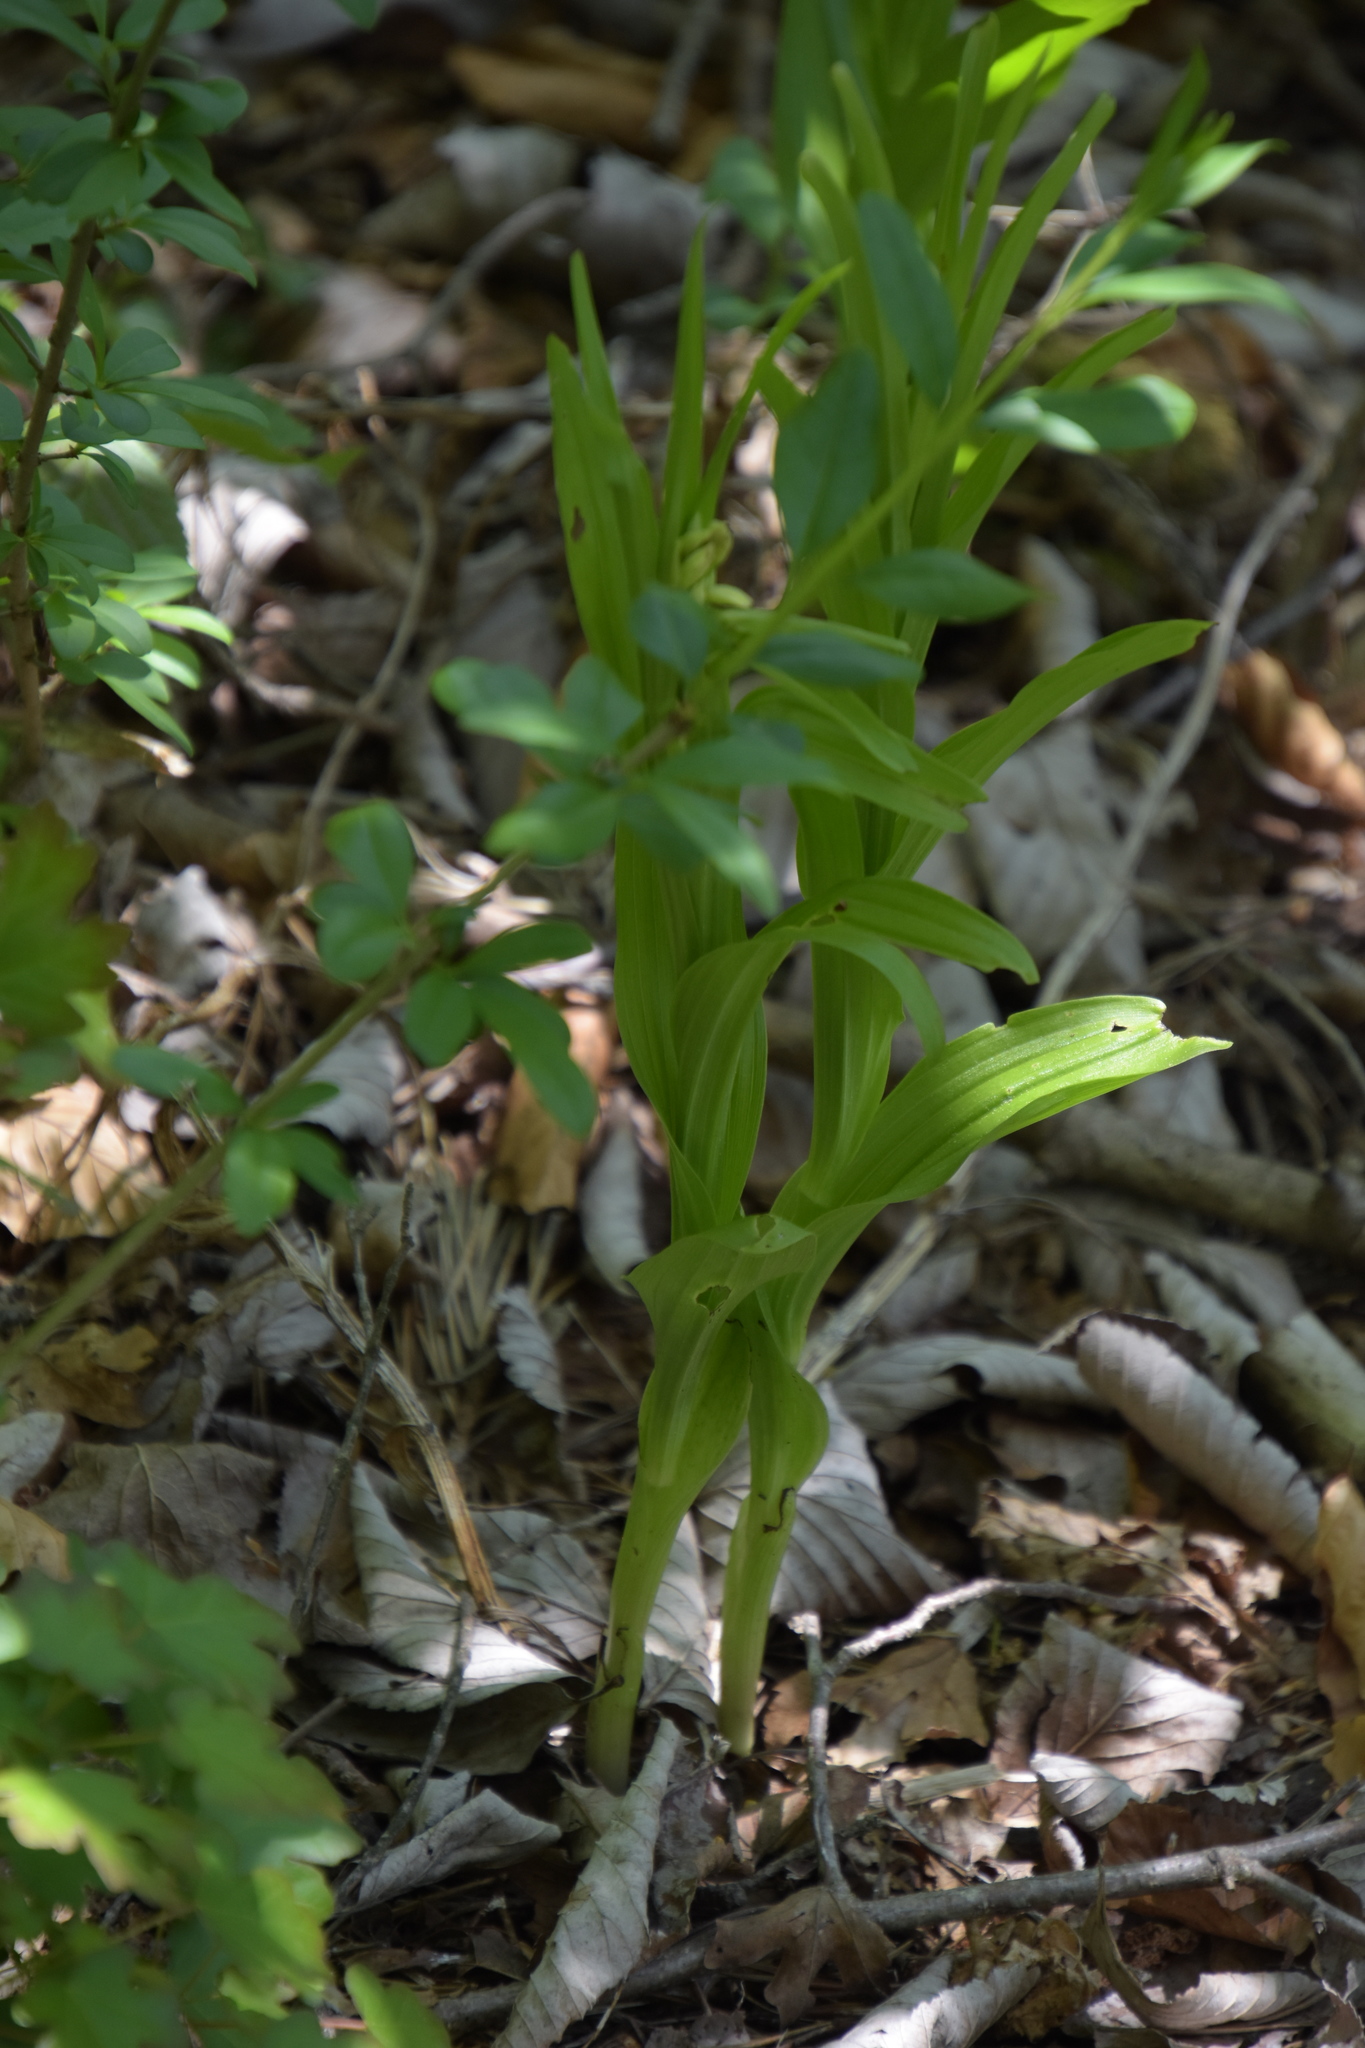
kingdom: Plantae
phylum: Tracheophyta
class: Liliopsida
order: Asparagales
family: Orchidaceae
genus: Cephalanthera
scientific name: Cephalanthera longifolia
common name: Narrow-leaved helleborine
